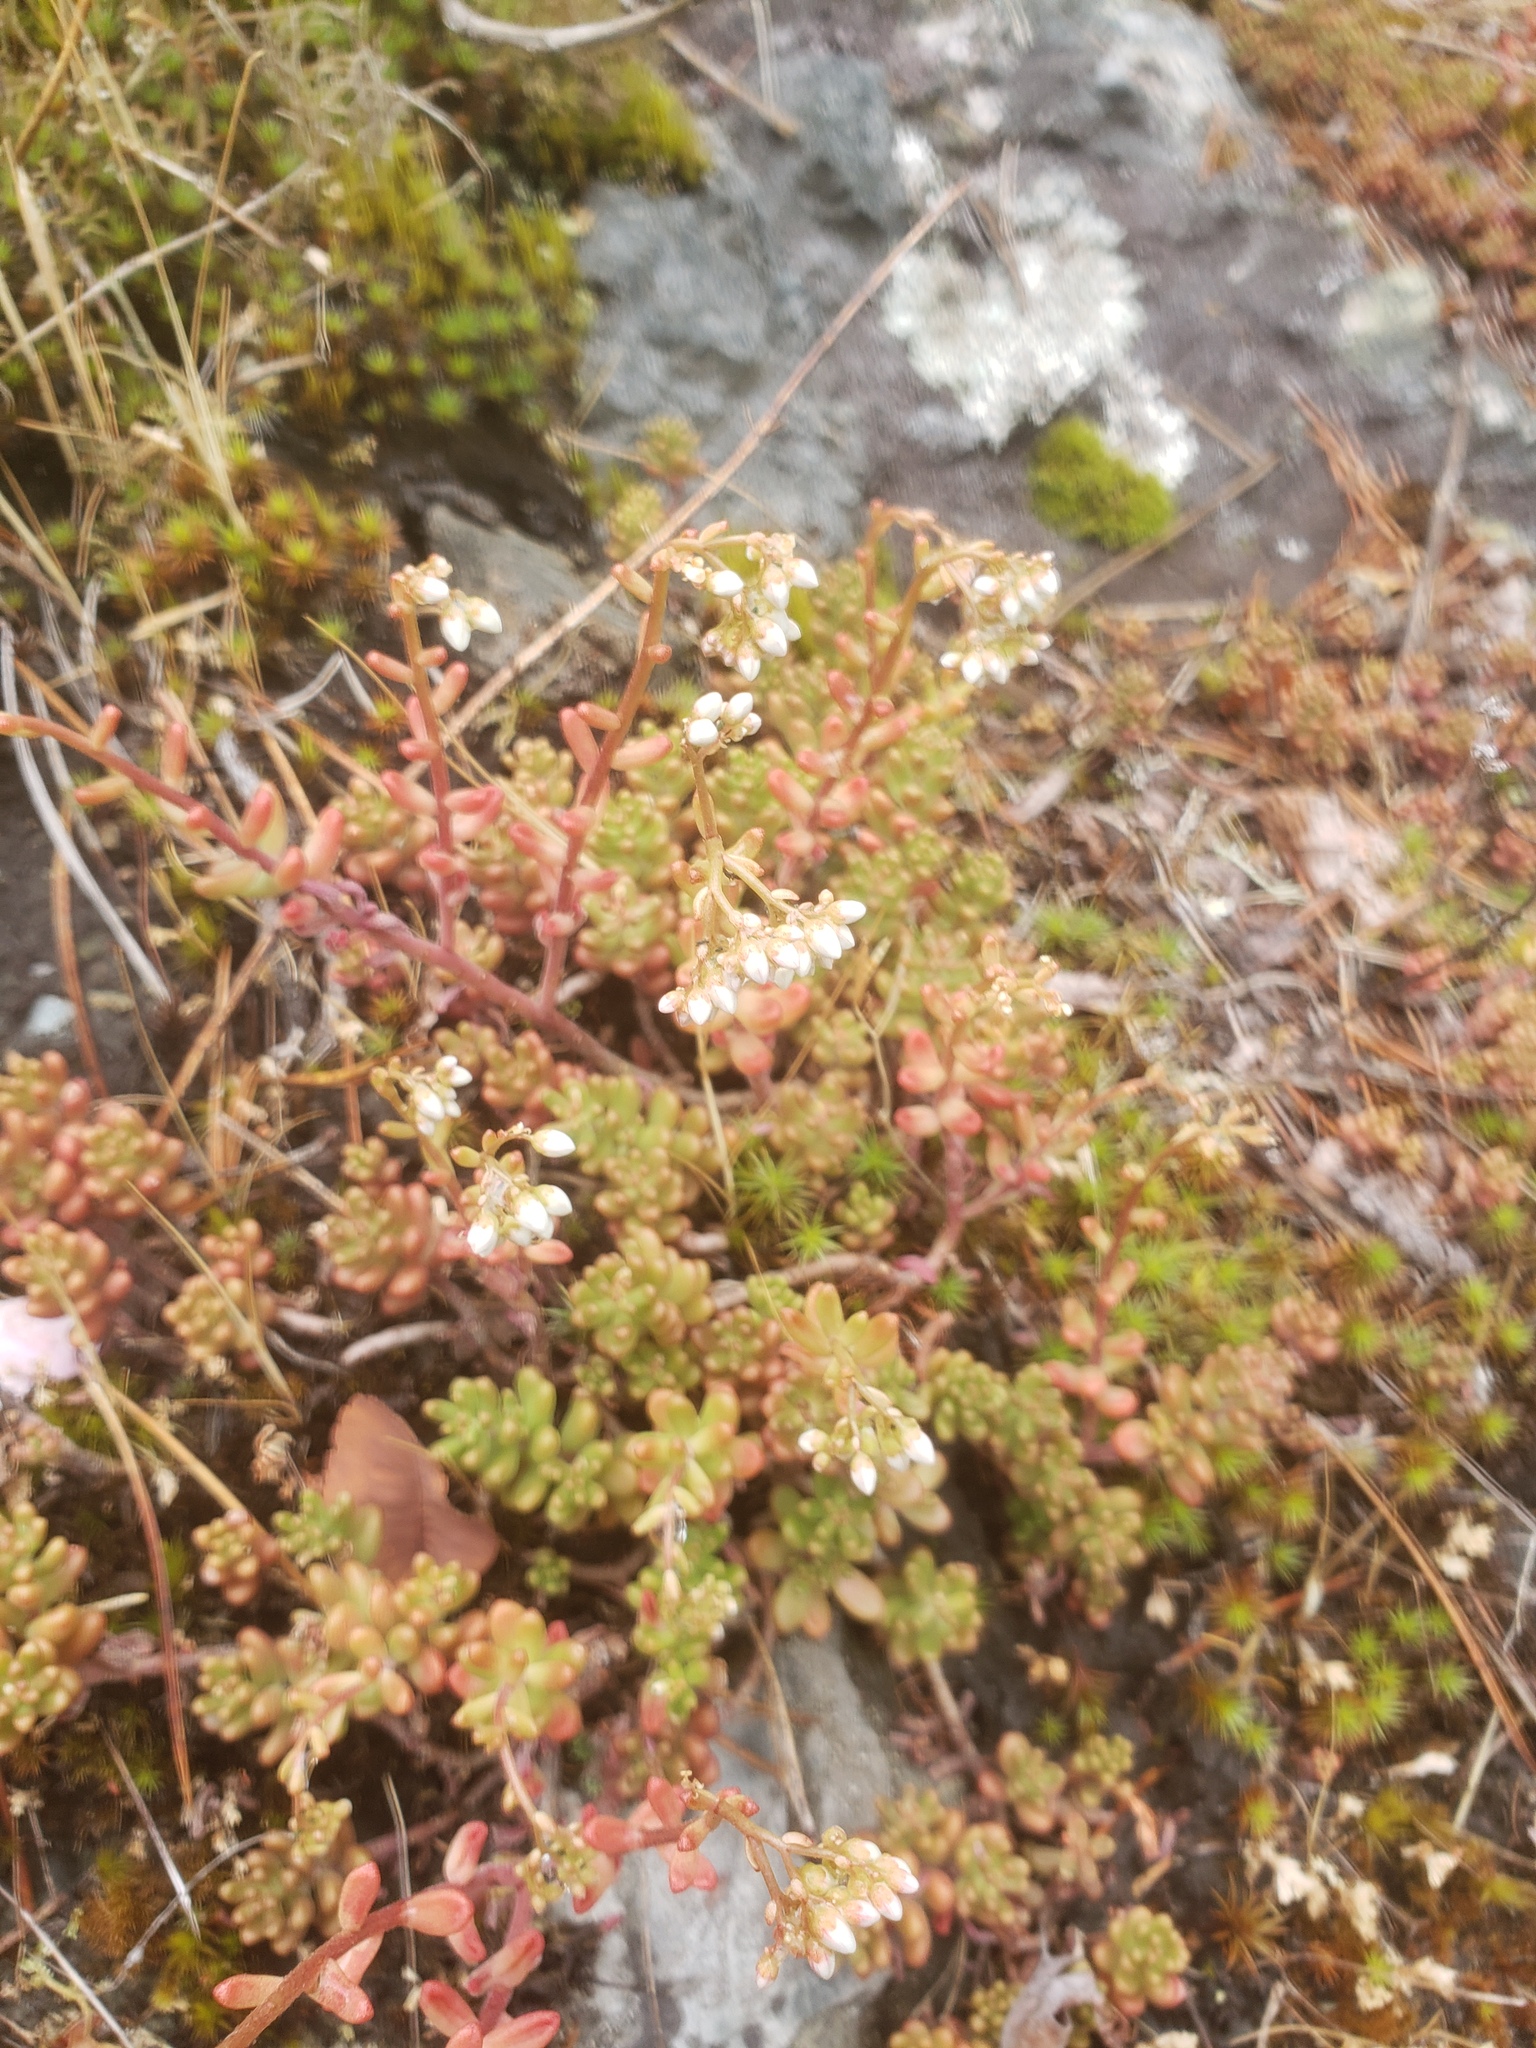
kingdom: Plantae
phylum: Tracheophyta
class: Magnoliopsida
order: Saxifragales
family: Crassulaceae
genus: Sedum
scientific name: Sedum album
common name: White stonecrop
